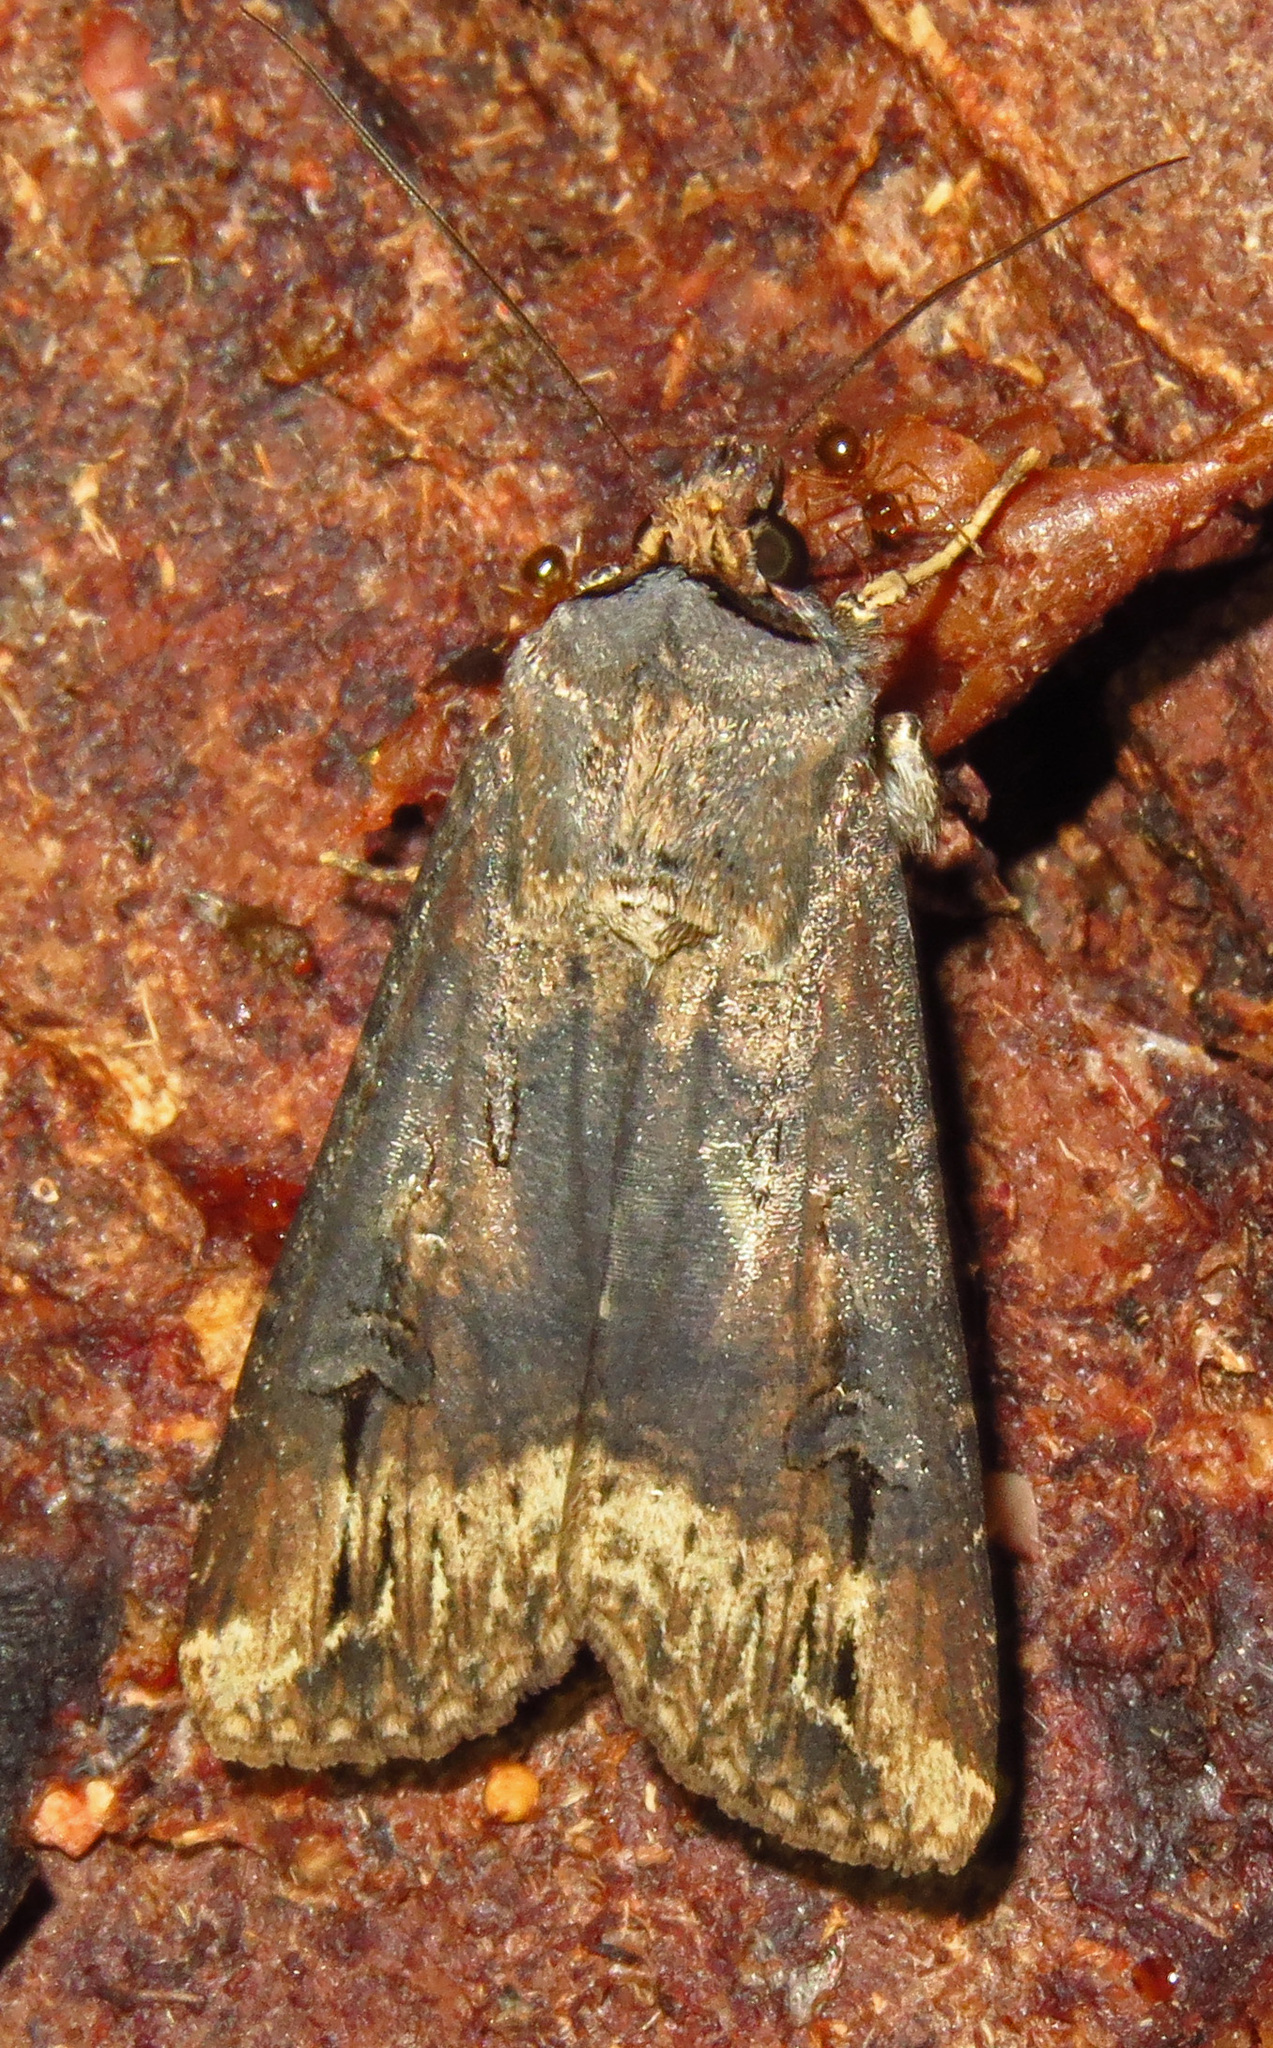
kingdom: Animalia
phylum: Arthropoda
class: Insecta
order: Lepidoptera
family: Noctuidae
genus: Agrotis
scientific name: Agrotis ipsilon
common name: Dark sword-grass
